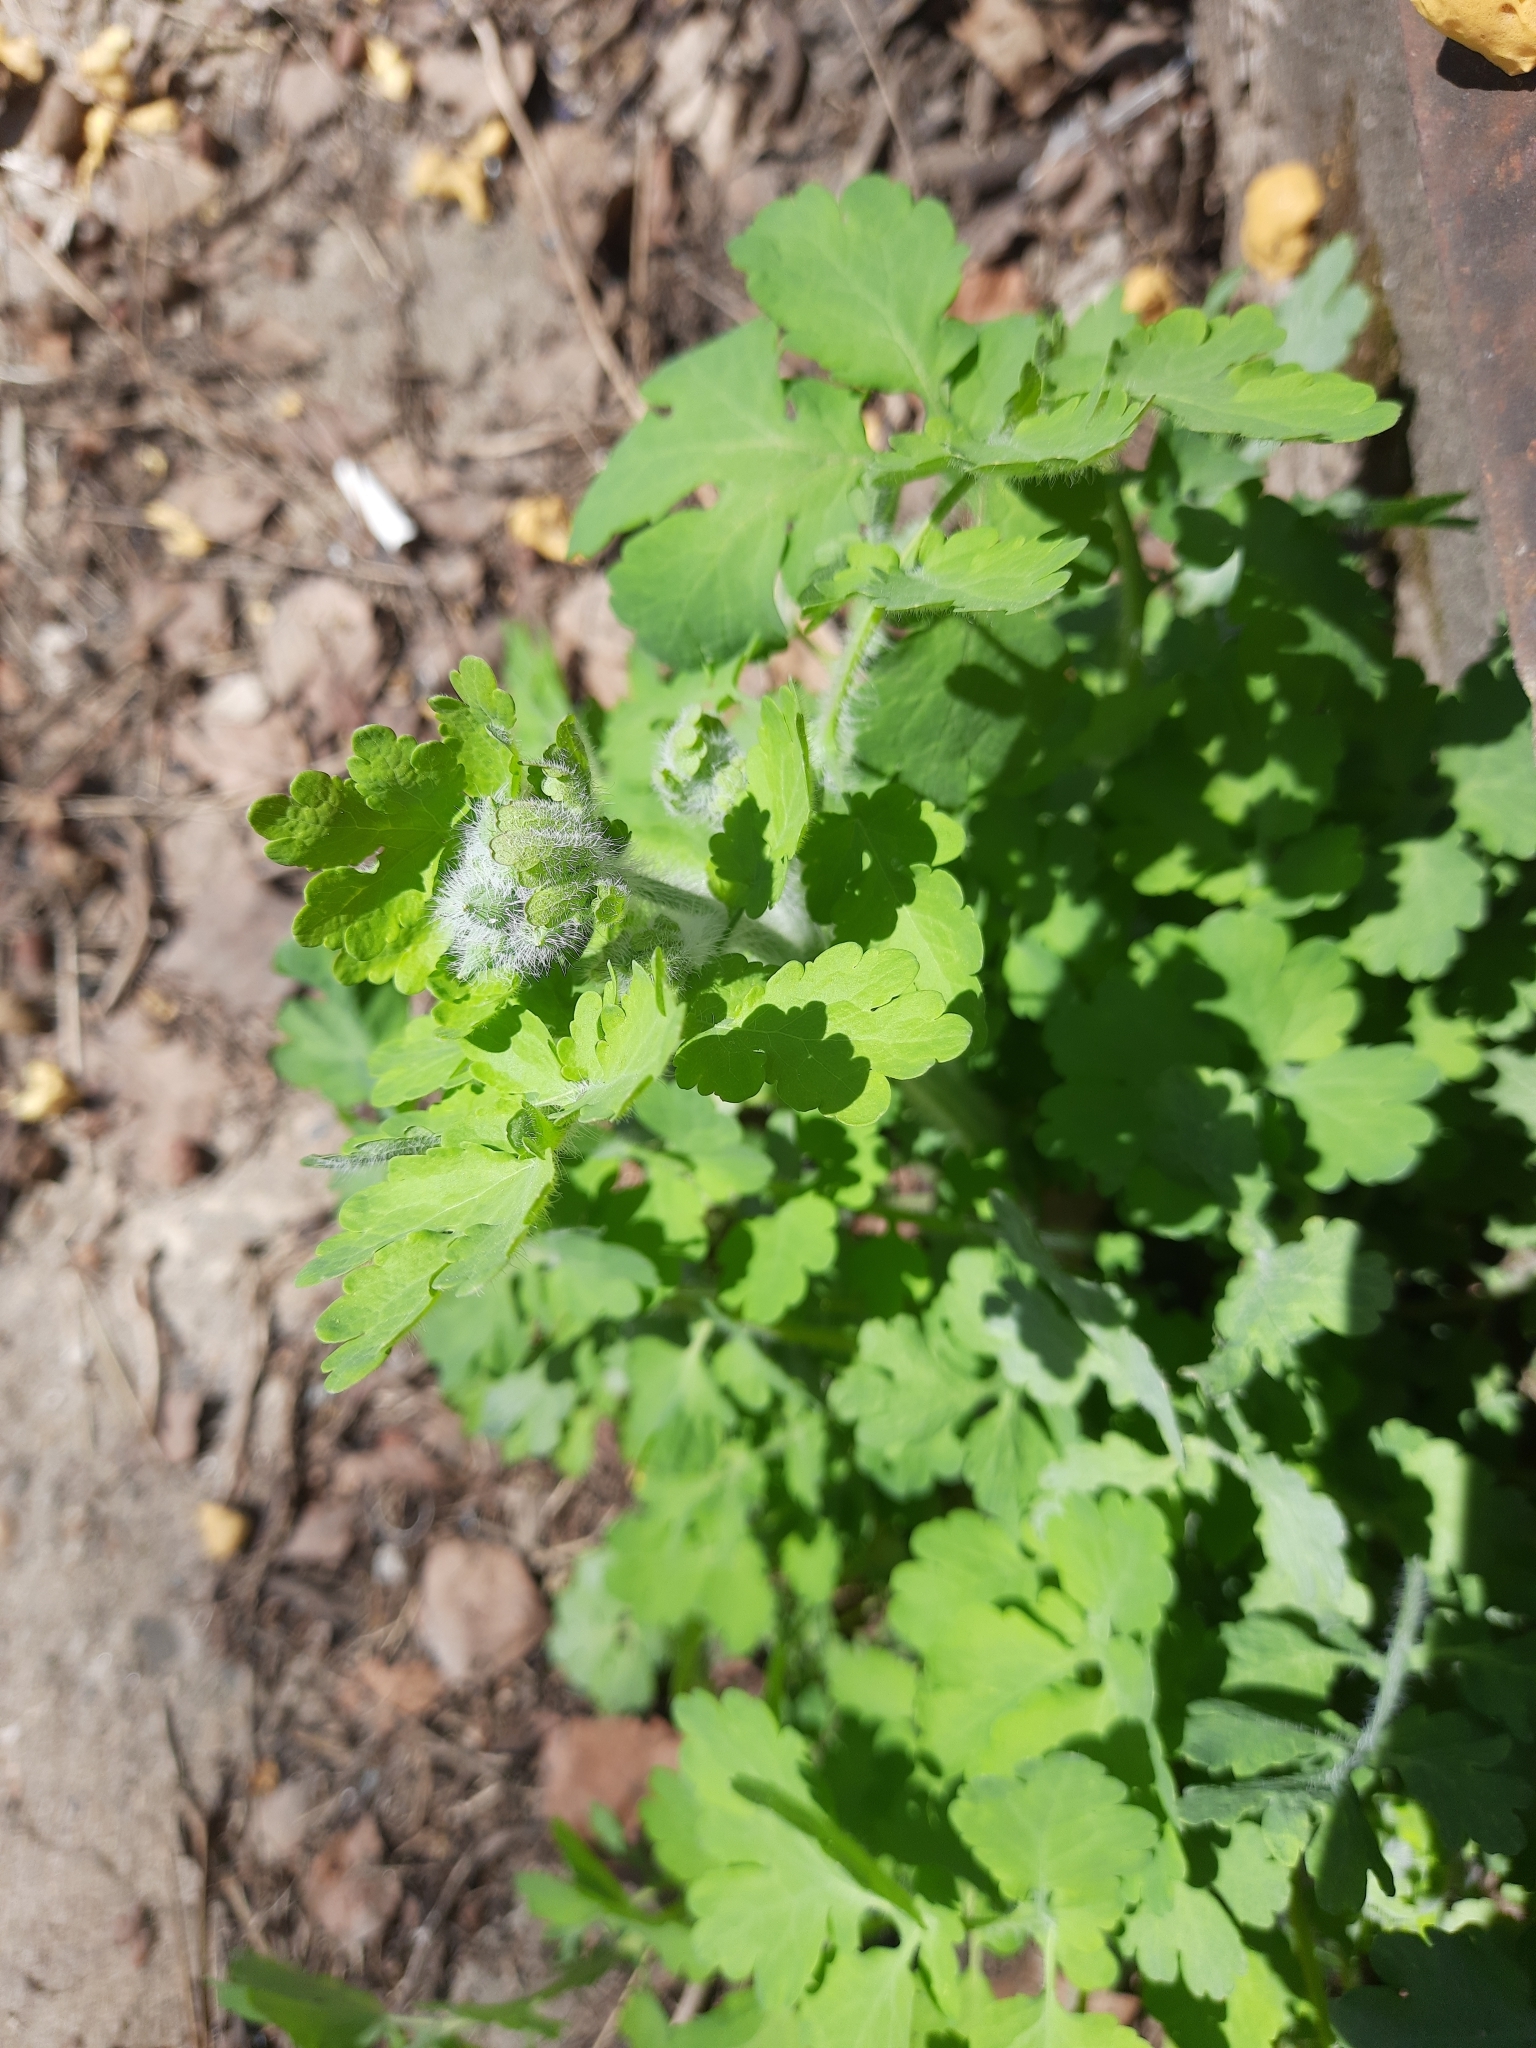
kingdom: Plantae
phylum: Tracheophyta
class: Magnoliopsida
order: Ranunculales
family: Papaveraceae
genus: Chelidonium
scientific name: Chelidonium majus
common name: Greater celandine
